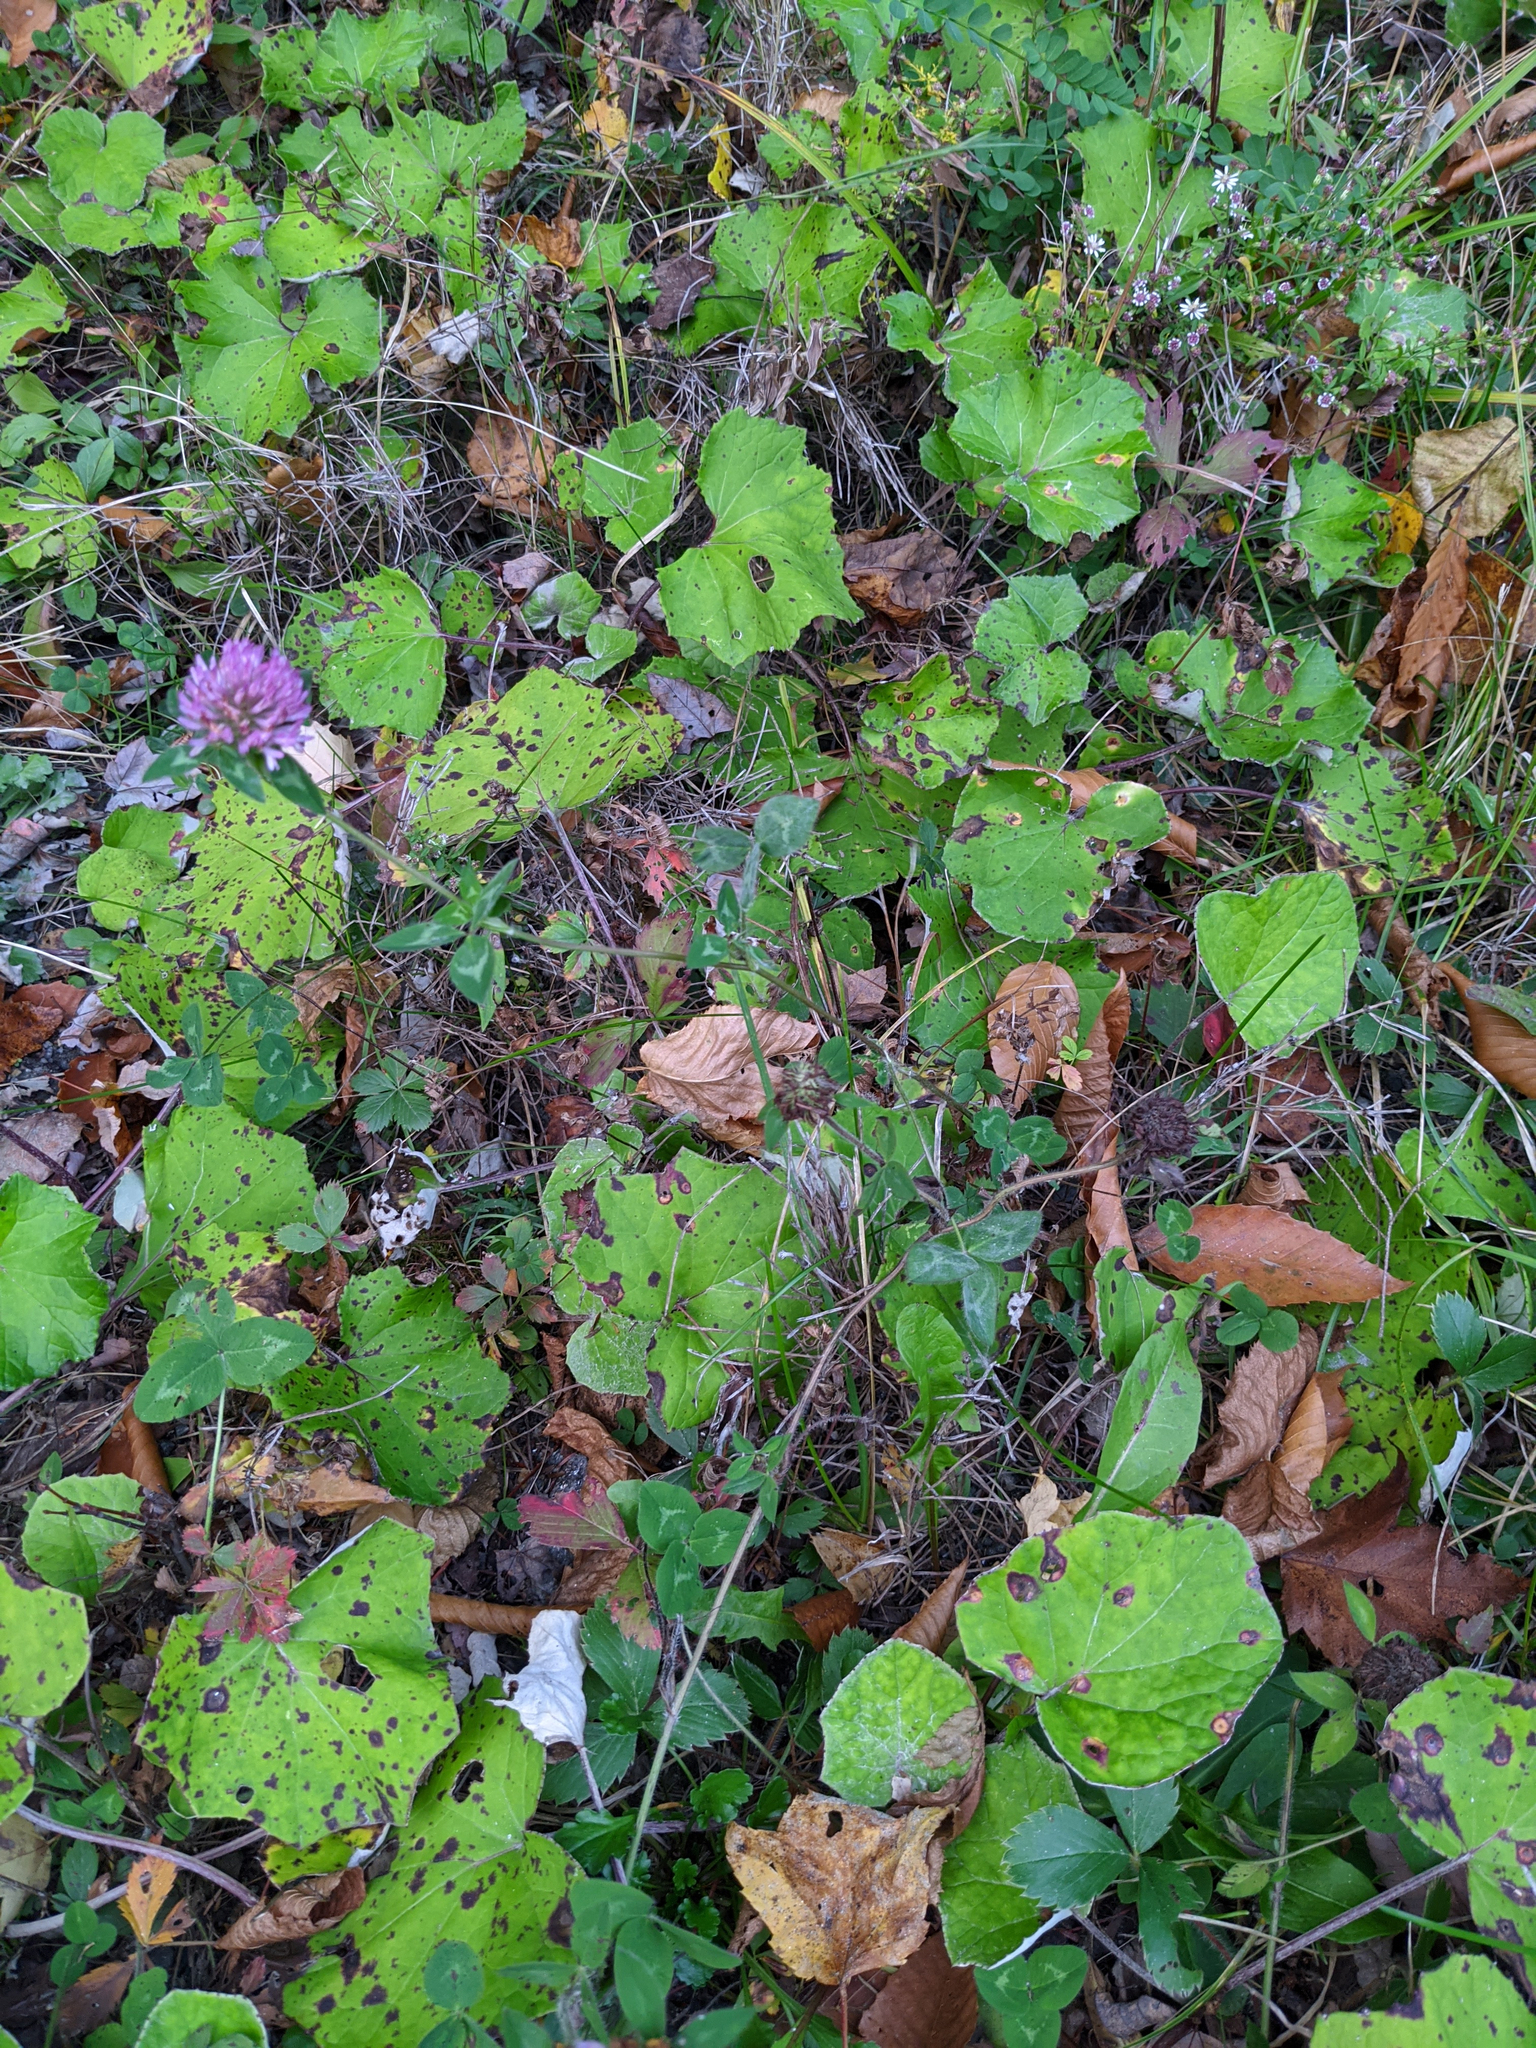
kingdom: Plantae
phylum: Tracheophyta
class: Magnoliopsida
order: Fabales
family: Fabaceae
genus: Trifolium
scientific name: Trifolium pratense
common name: Red clover
